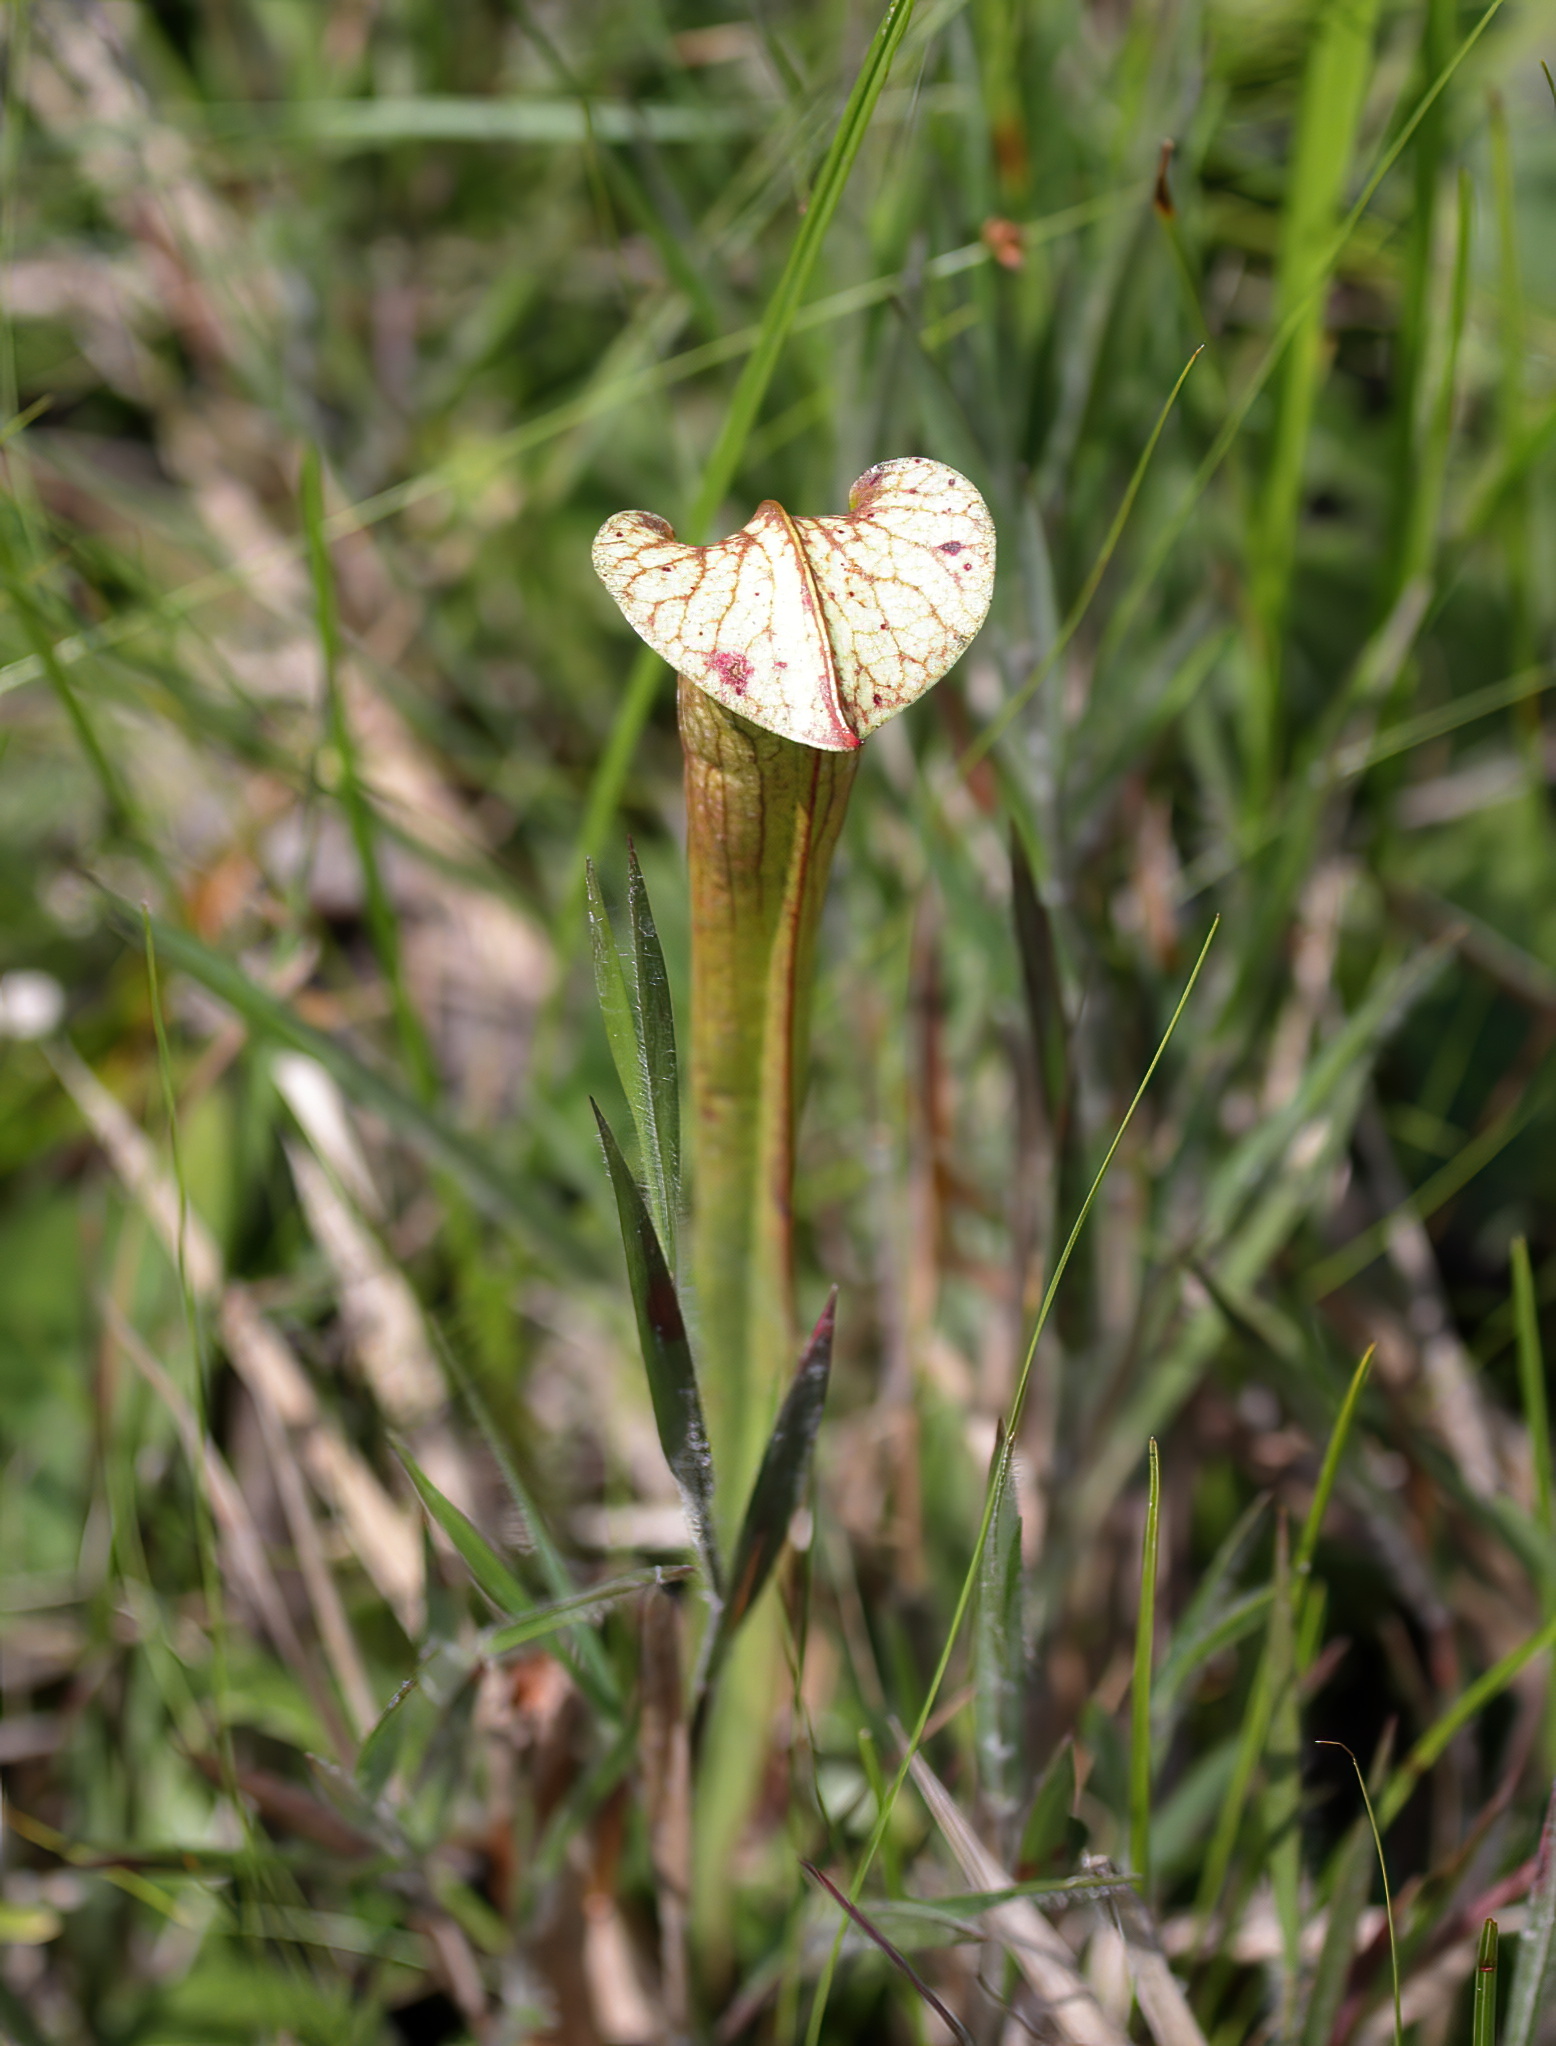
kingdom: Plantae
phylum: Tracheophyta
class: Magnoliopsida
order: Ericales
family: Sarraceniaceae
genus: Sarracenia
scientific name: Sarracenia areolata
